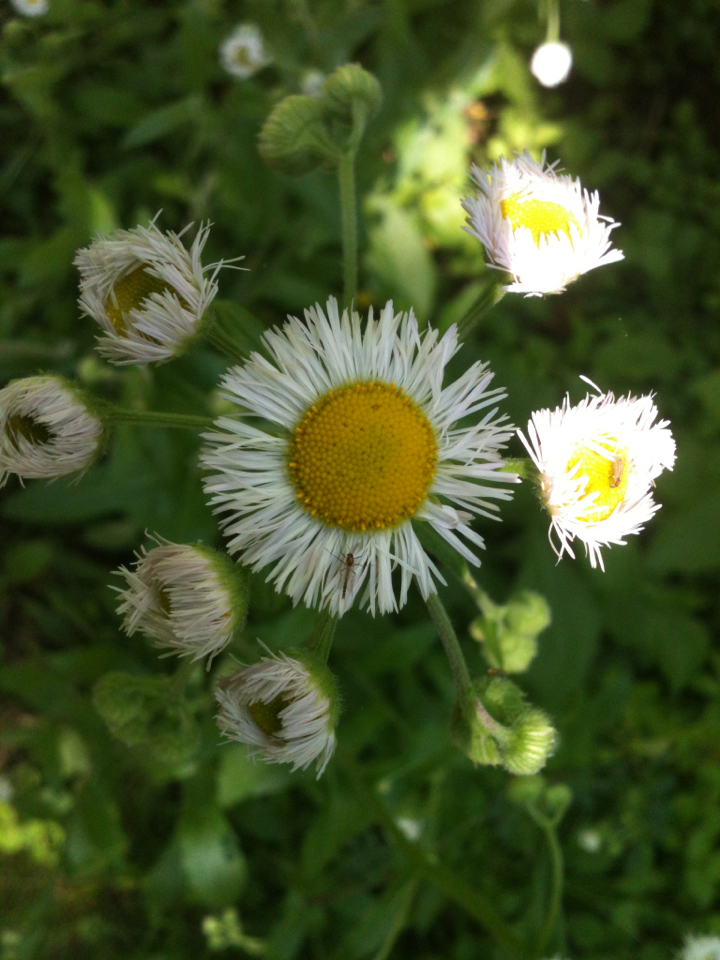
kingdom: Plantae
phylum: Tracheophyta
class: Magnoliopsida
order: Asterales
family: Asteraceae
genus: Erigeron
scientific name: Erigeron philadelphicus
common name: Robin's-plantain
